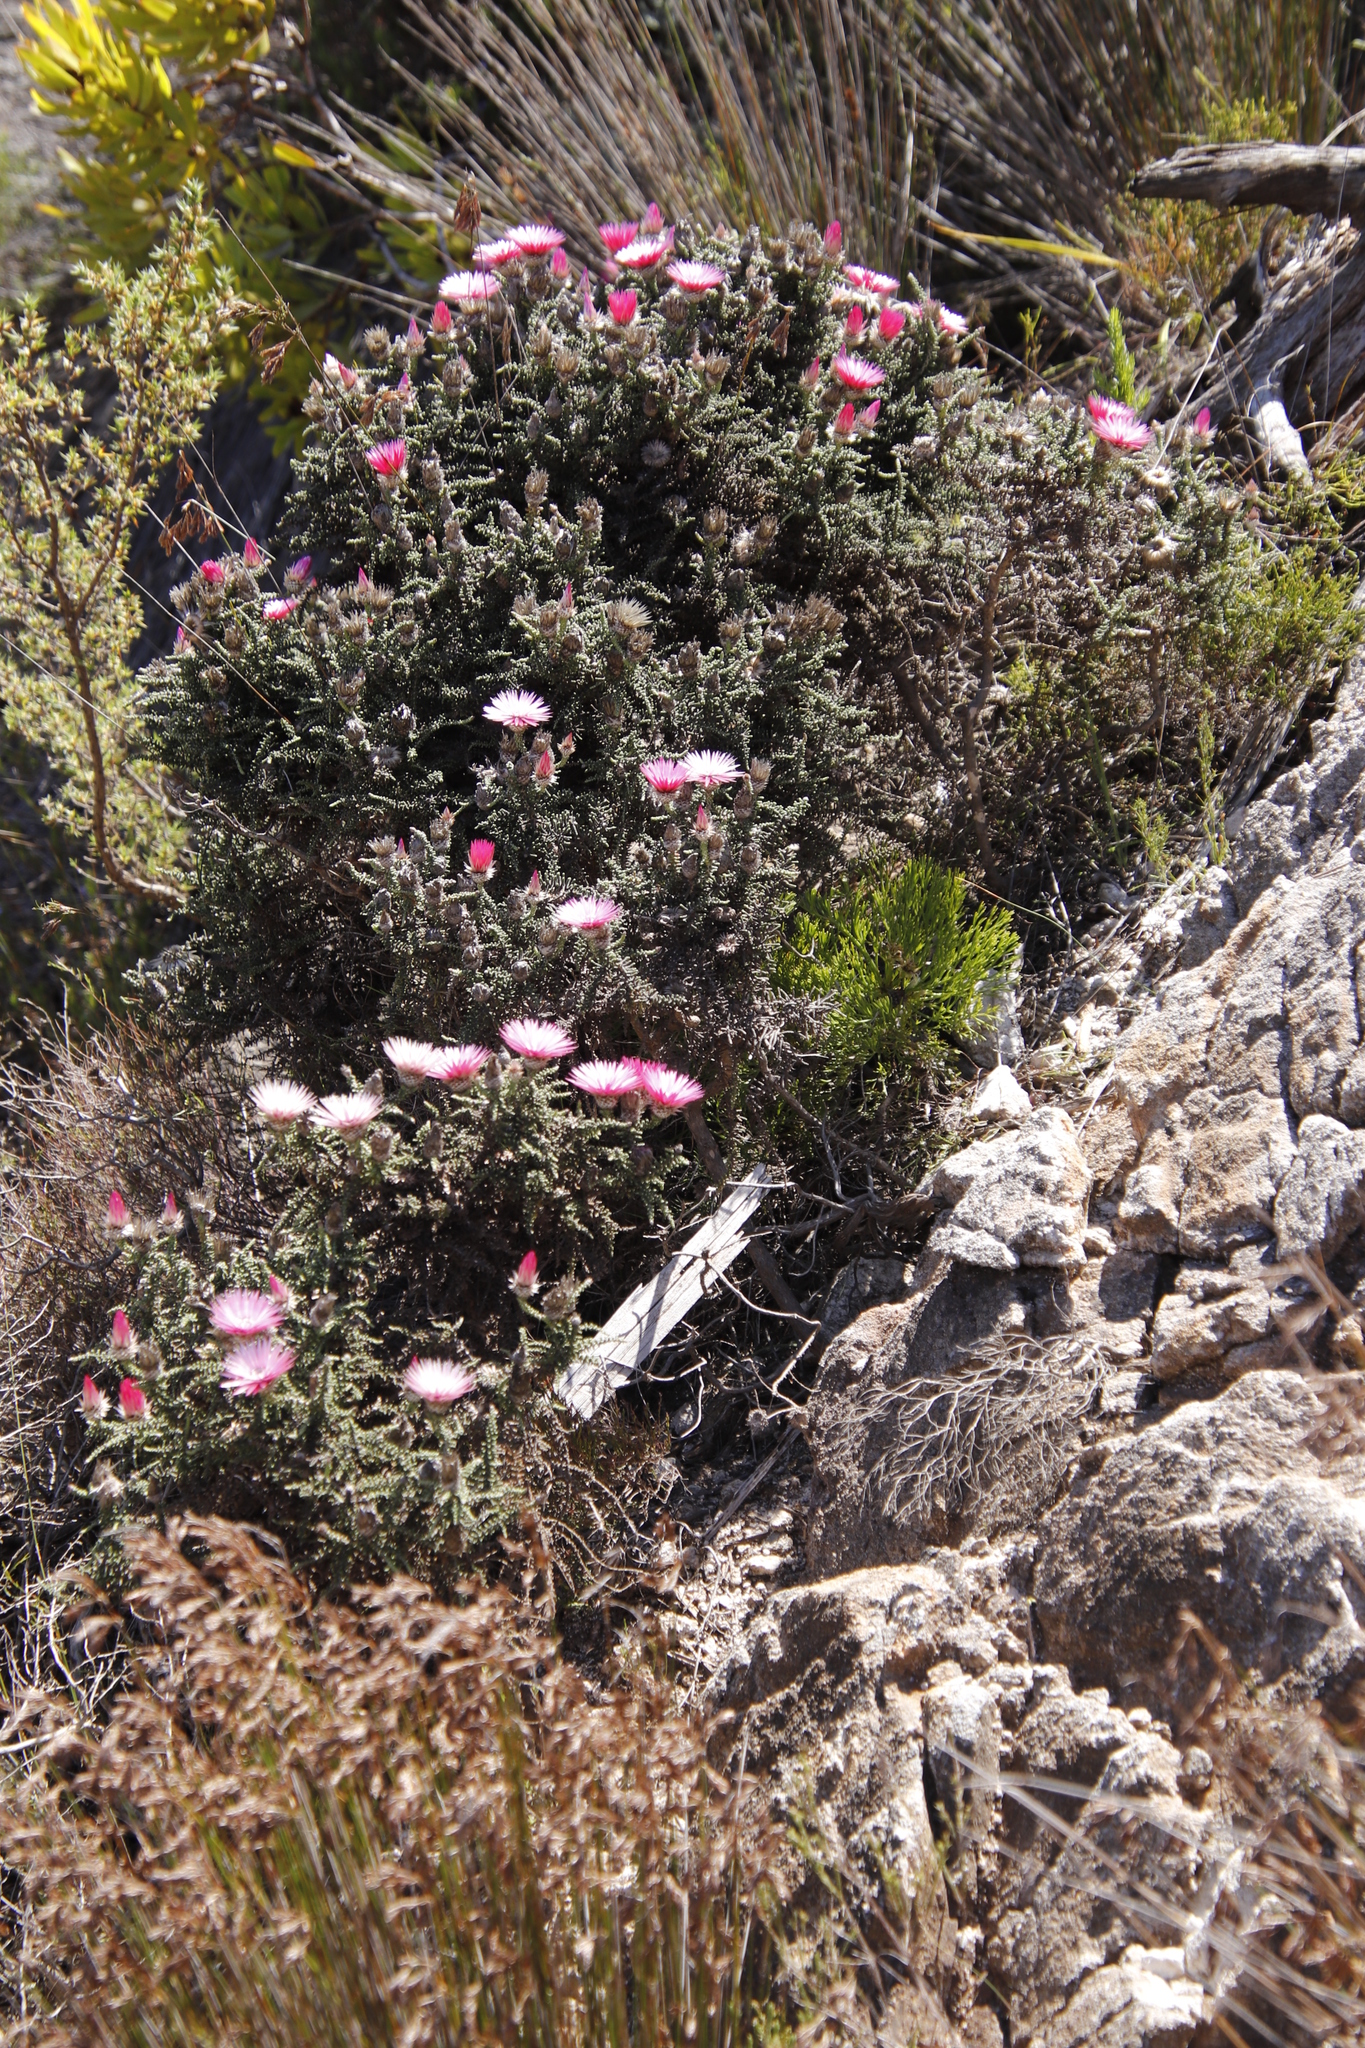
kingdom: Plantae
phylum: Tracheophyta
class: Magnoliopsida
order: Asterales
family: Asteraceae
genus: Phaenocoma
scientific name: Phaenocoma prolifera
